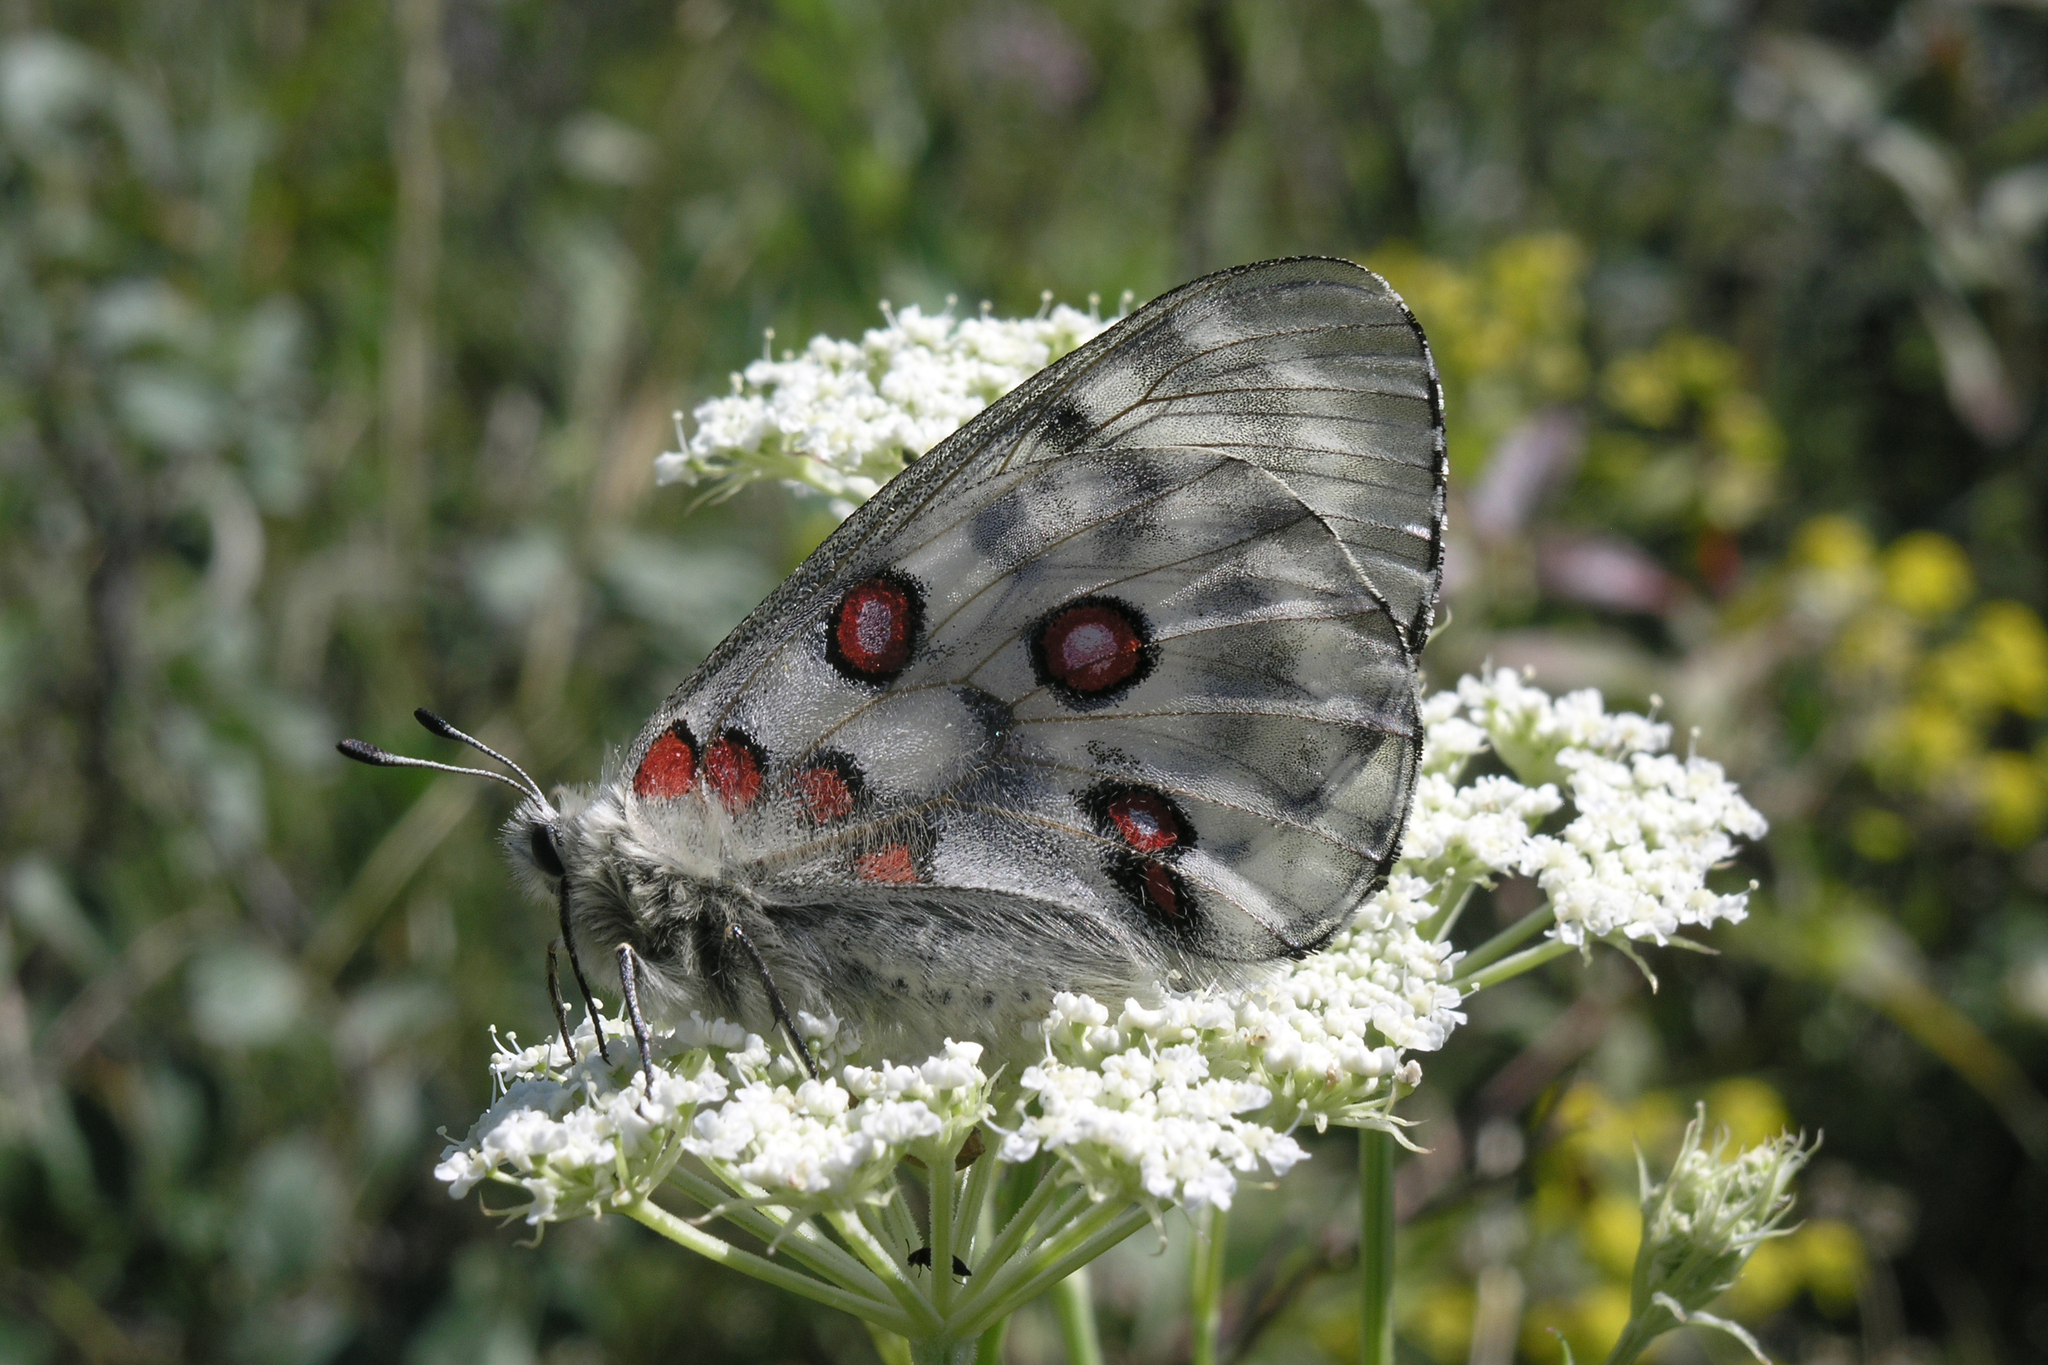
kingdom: Animalia
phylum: Arthropoda
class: Insecta
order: Lepidoptera
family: Papilionidae
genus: Parnassius
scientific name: Parnassius nomion
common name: Nomion apollo
